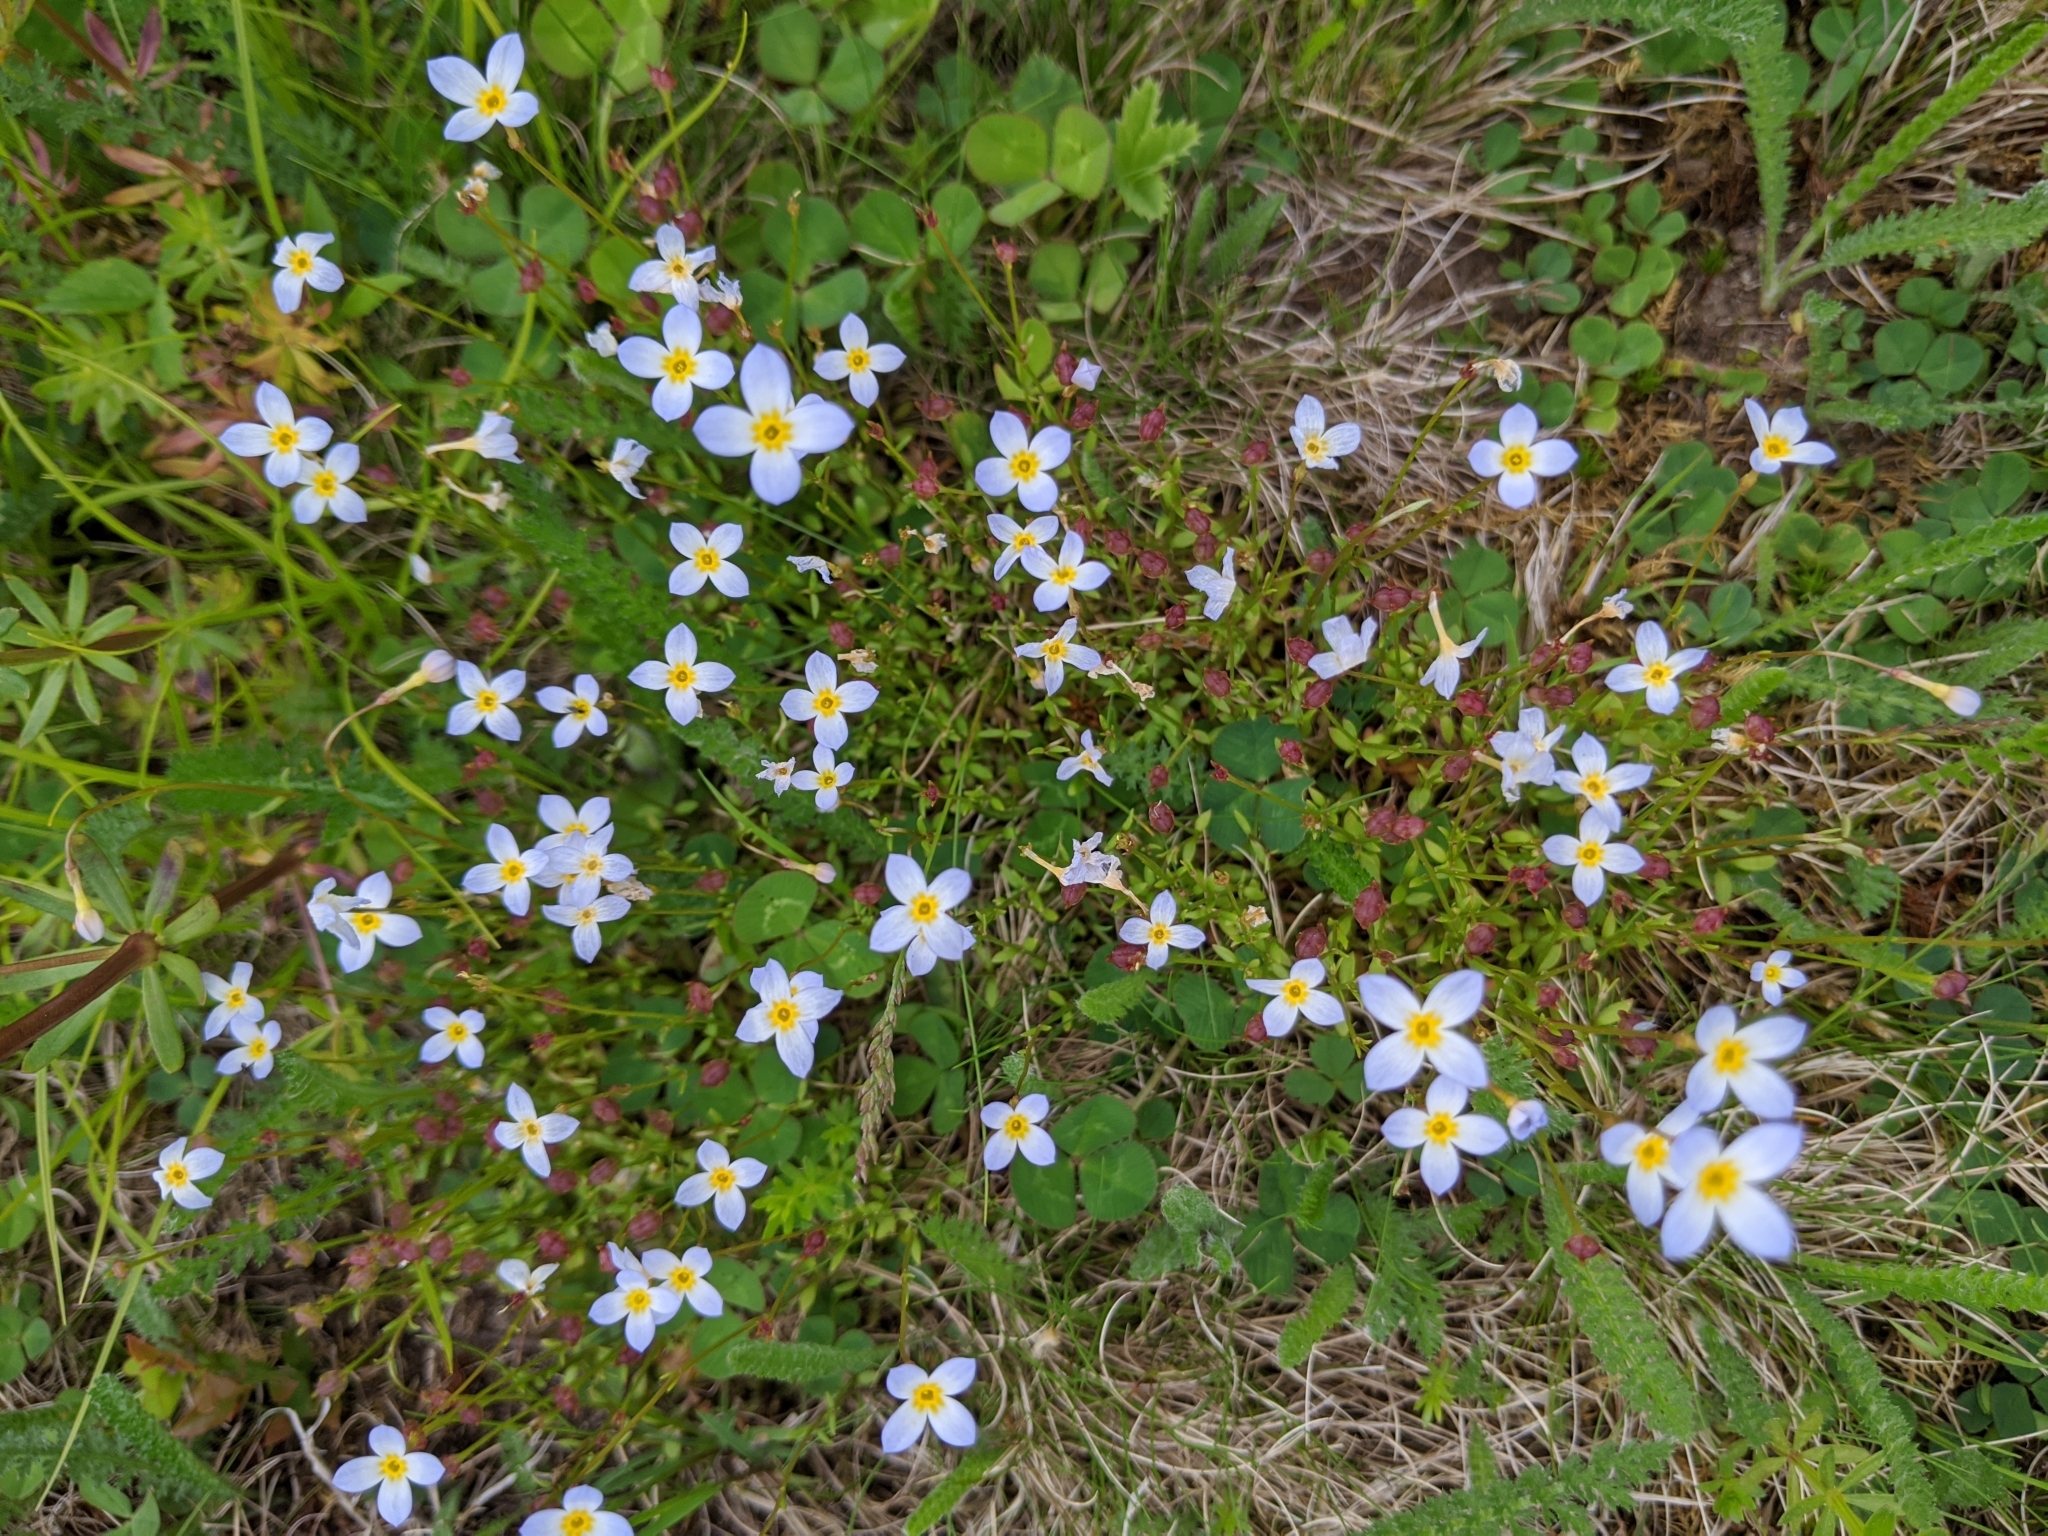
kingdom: Plantae
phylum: Tracheophyta
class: Magnoliopsida
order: Gentianales
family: Rubiaceae
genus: Houstonia
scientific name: Houstonia caerulea
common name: Bluets
